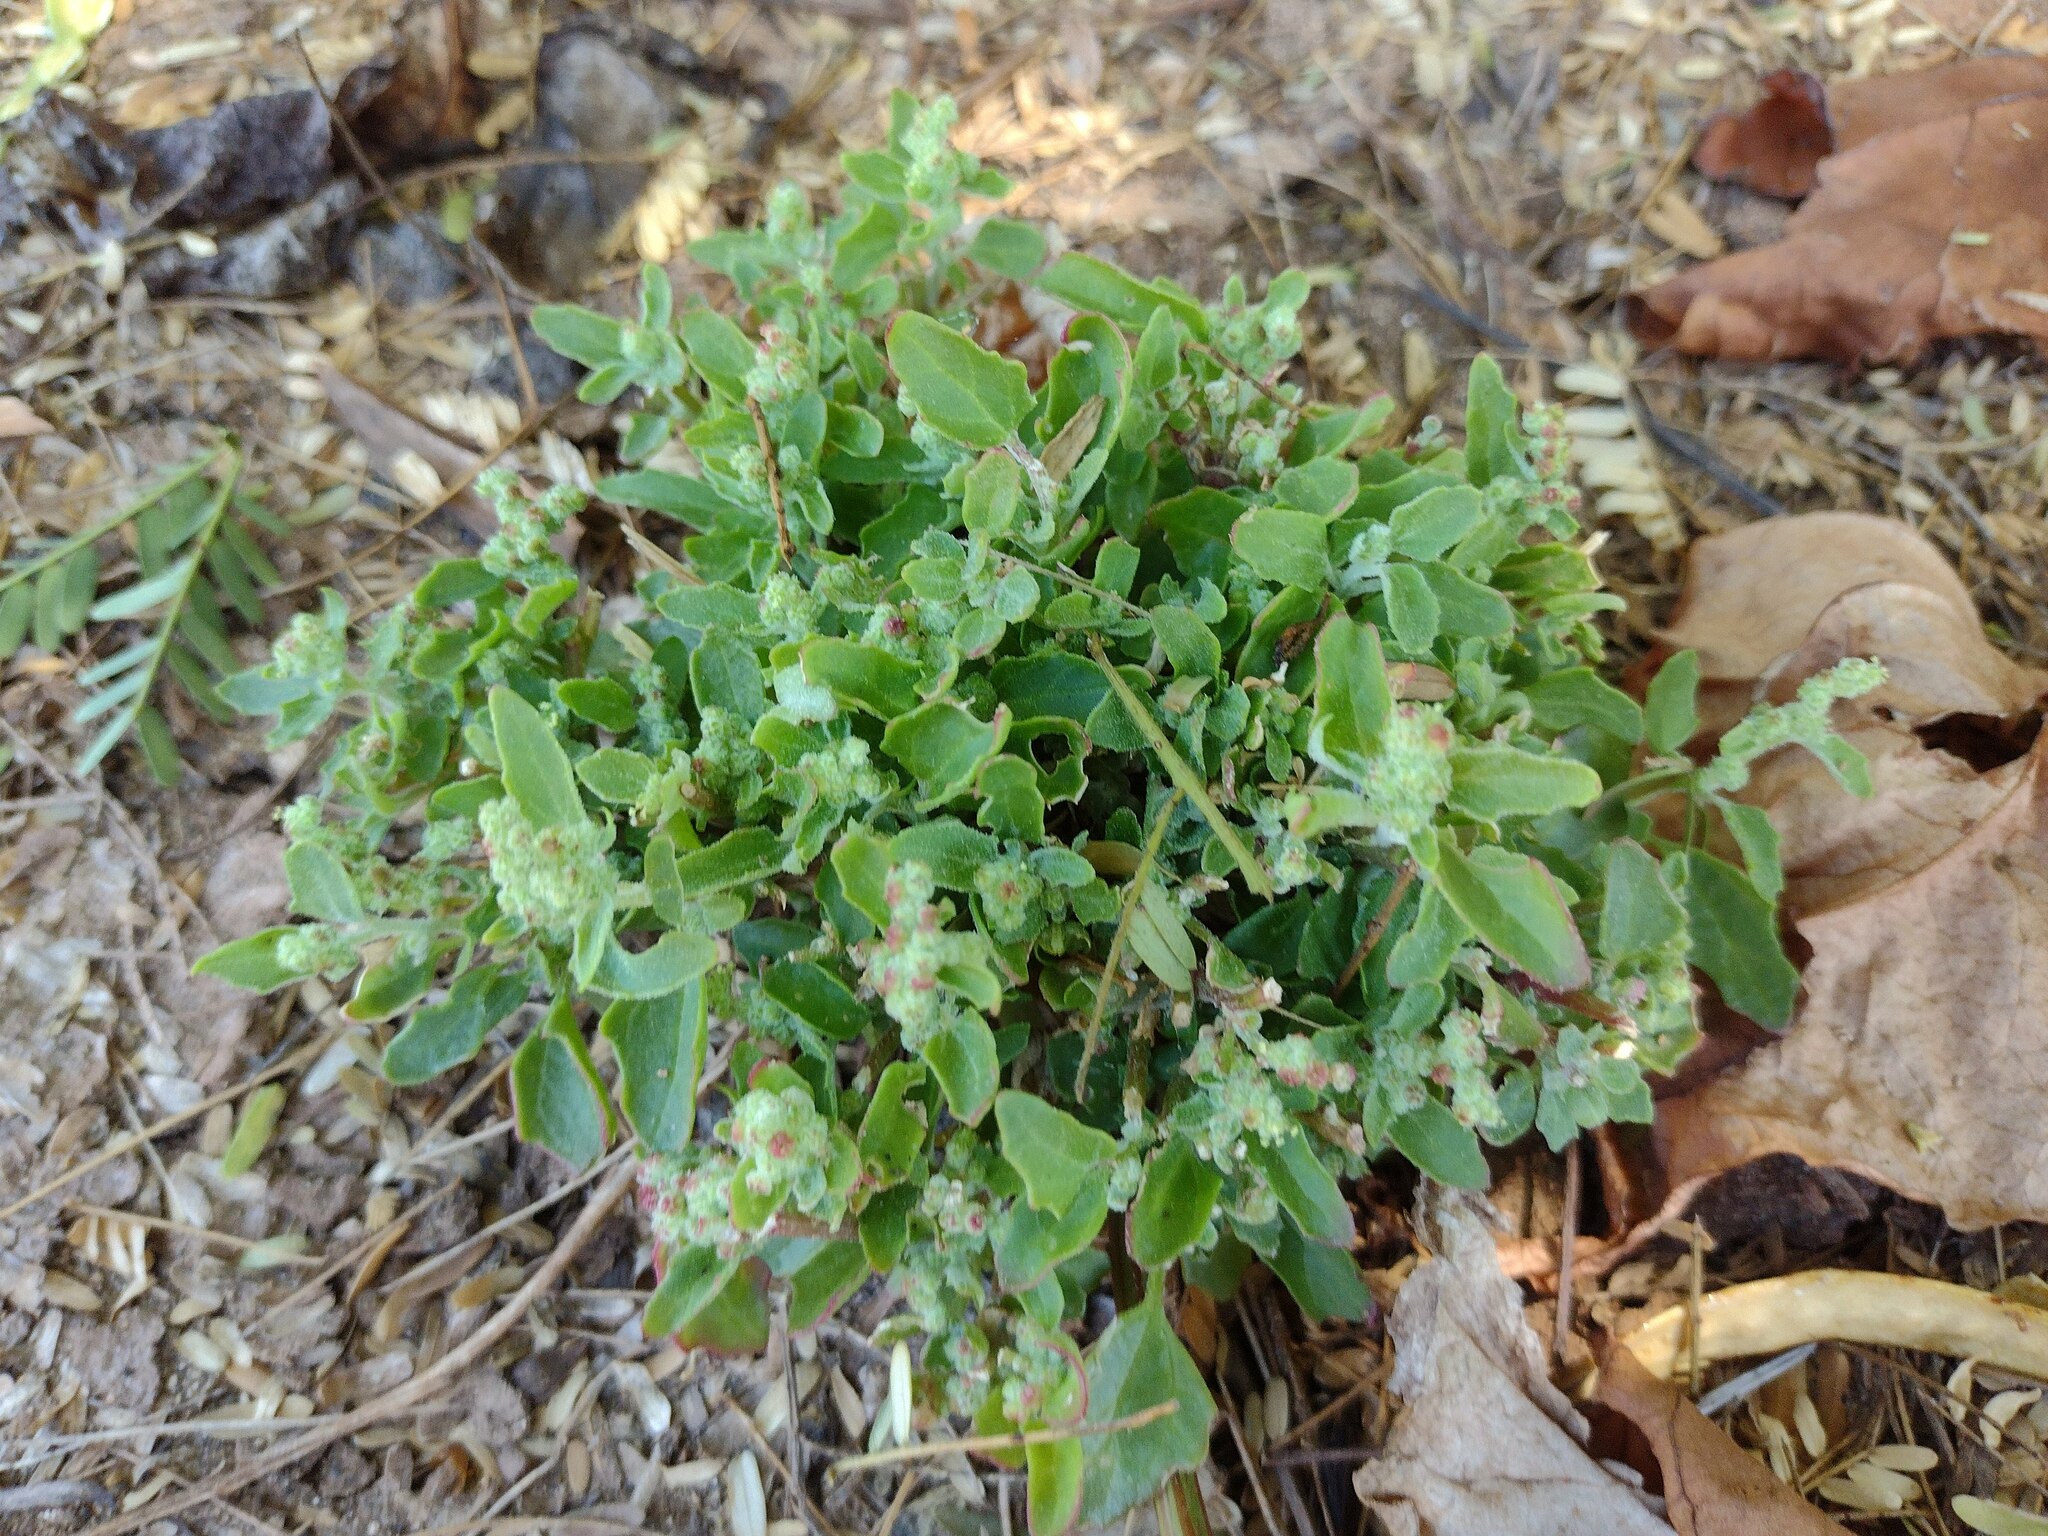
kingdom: Plantae
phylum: Tracheophyta
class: Magnoliopsida
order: Caryophyllales
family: Amaranthaceae
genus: Chenopodiastrum
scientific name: Chenopodiastrum murale
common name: Sowbane
